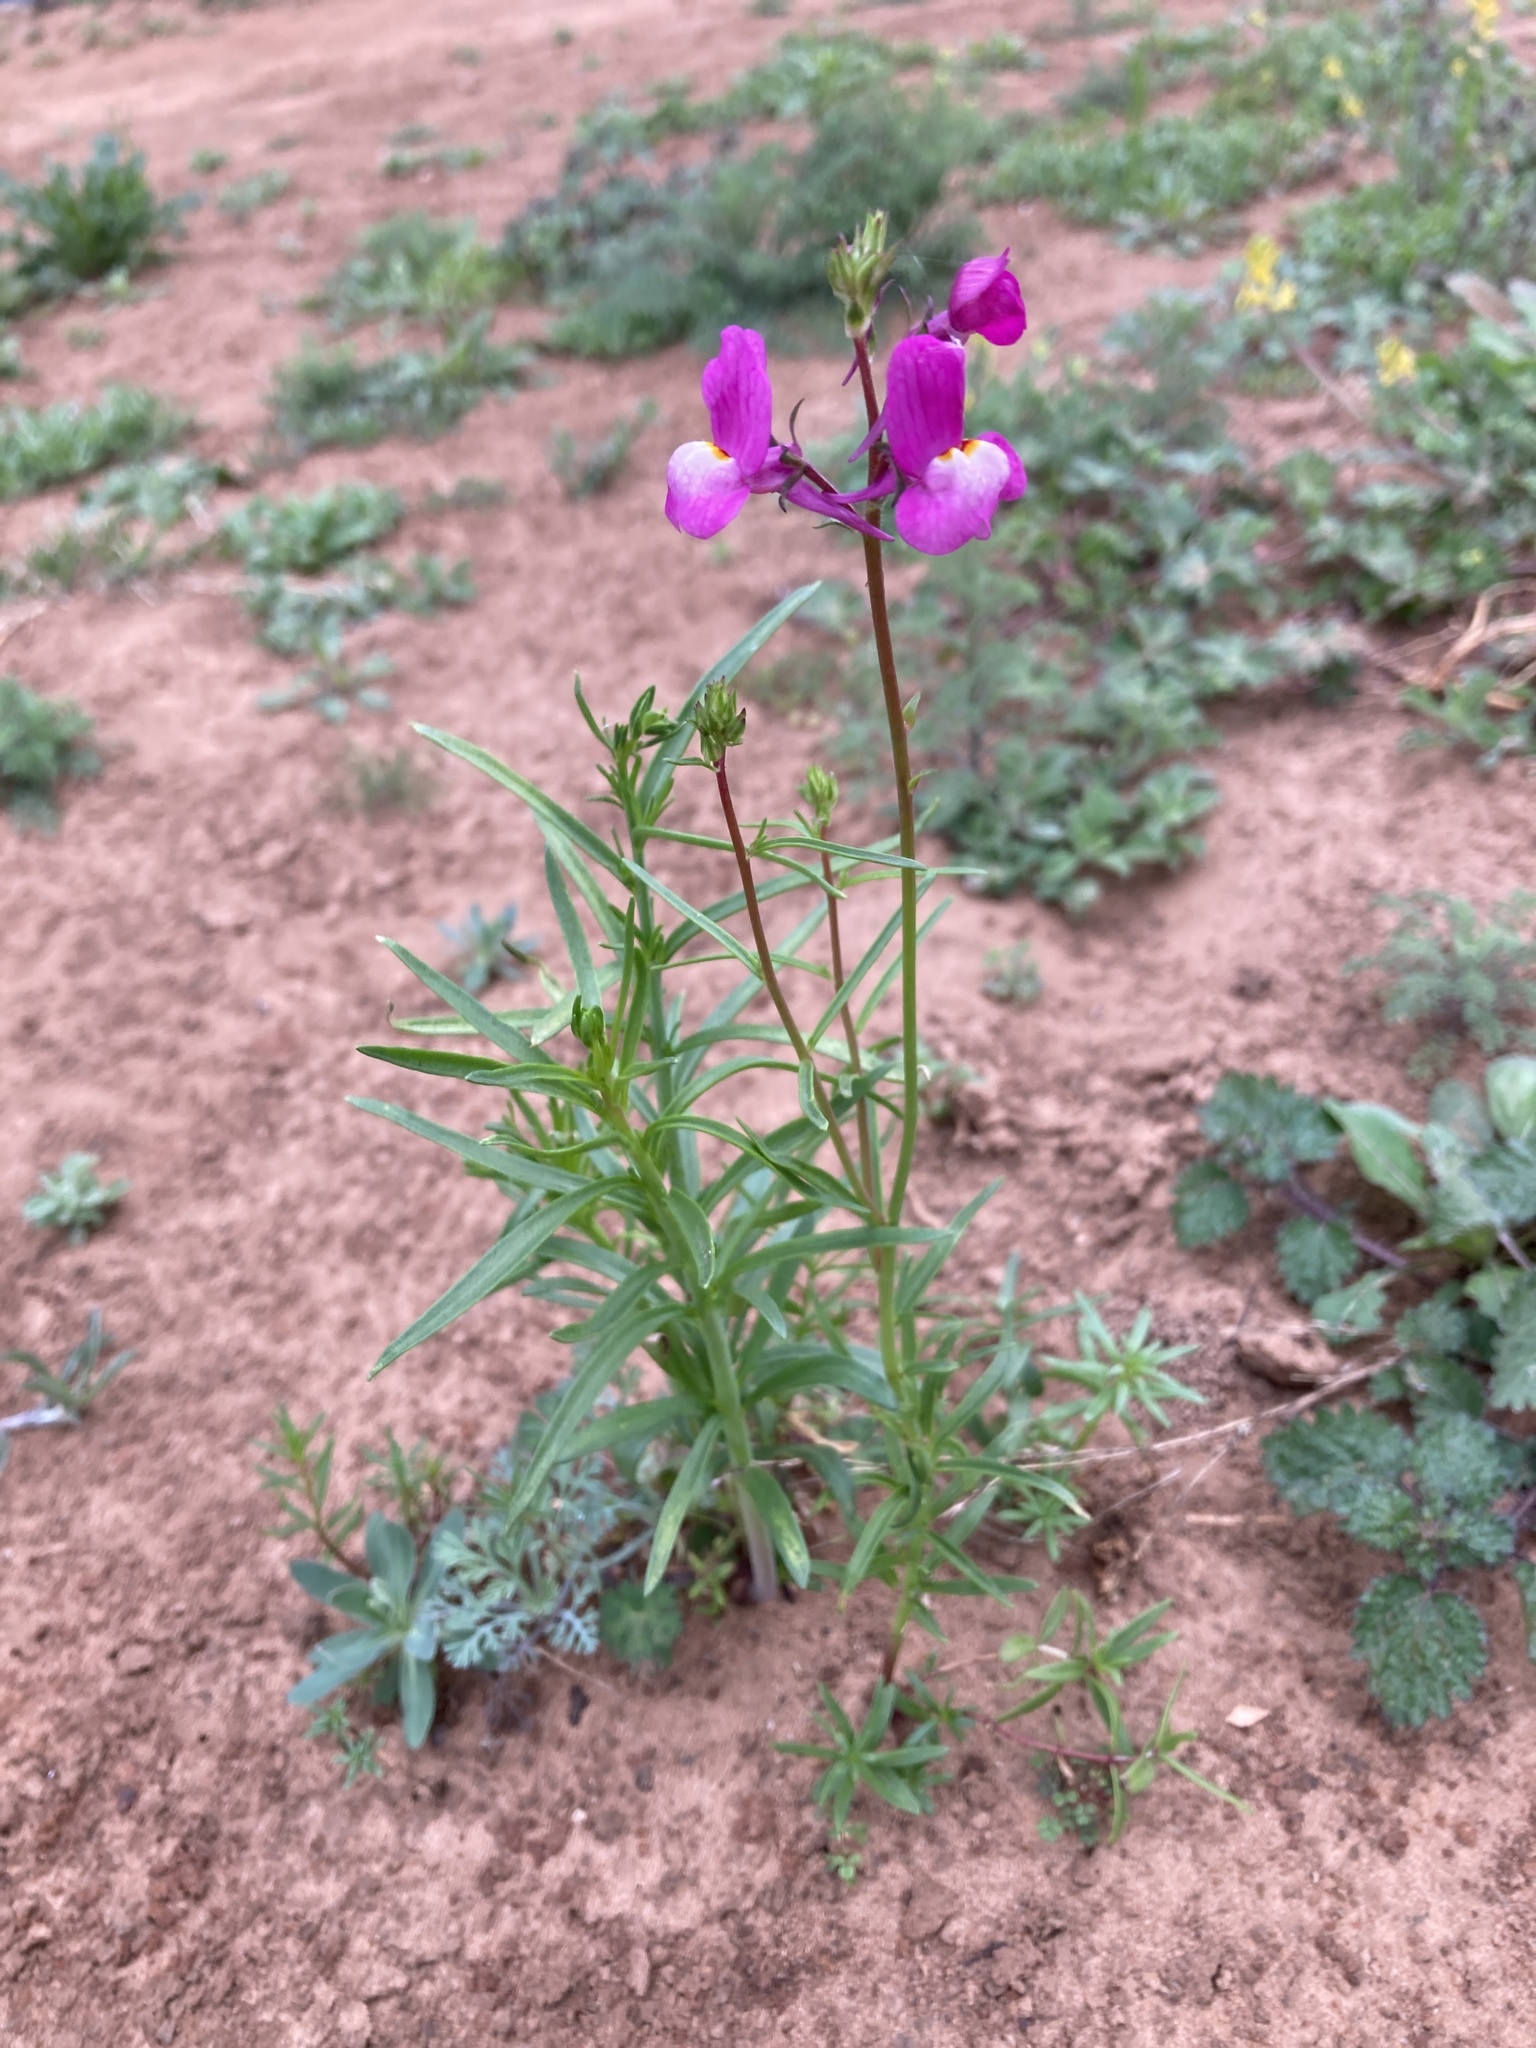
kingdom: Plantae
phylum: Tracheophyta
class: Magnoliopsida
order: Lamiales
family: Plantaginaceae
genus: Linaria
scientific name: Linaria maroccana
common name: Moroccan toadflax
